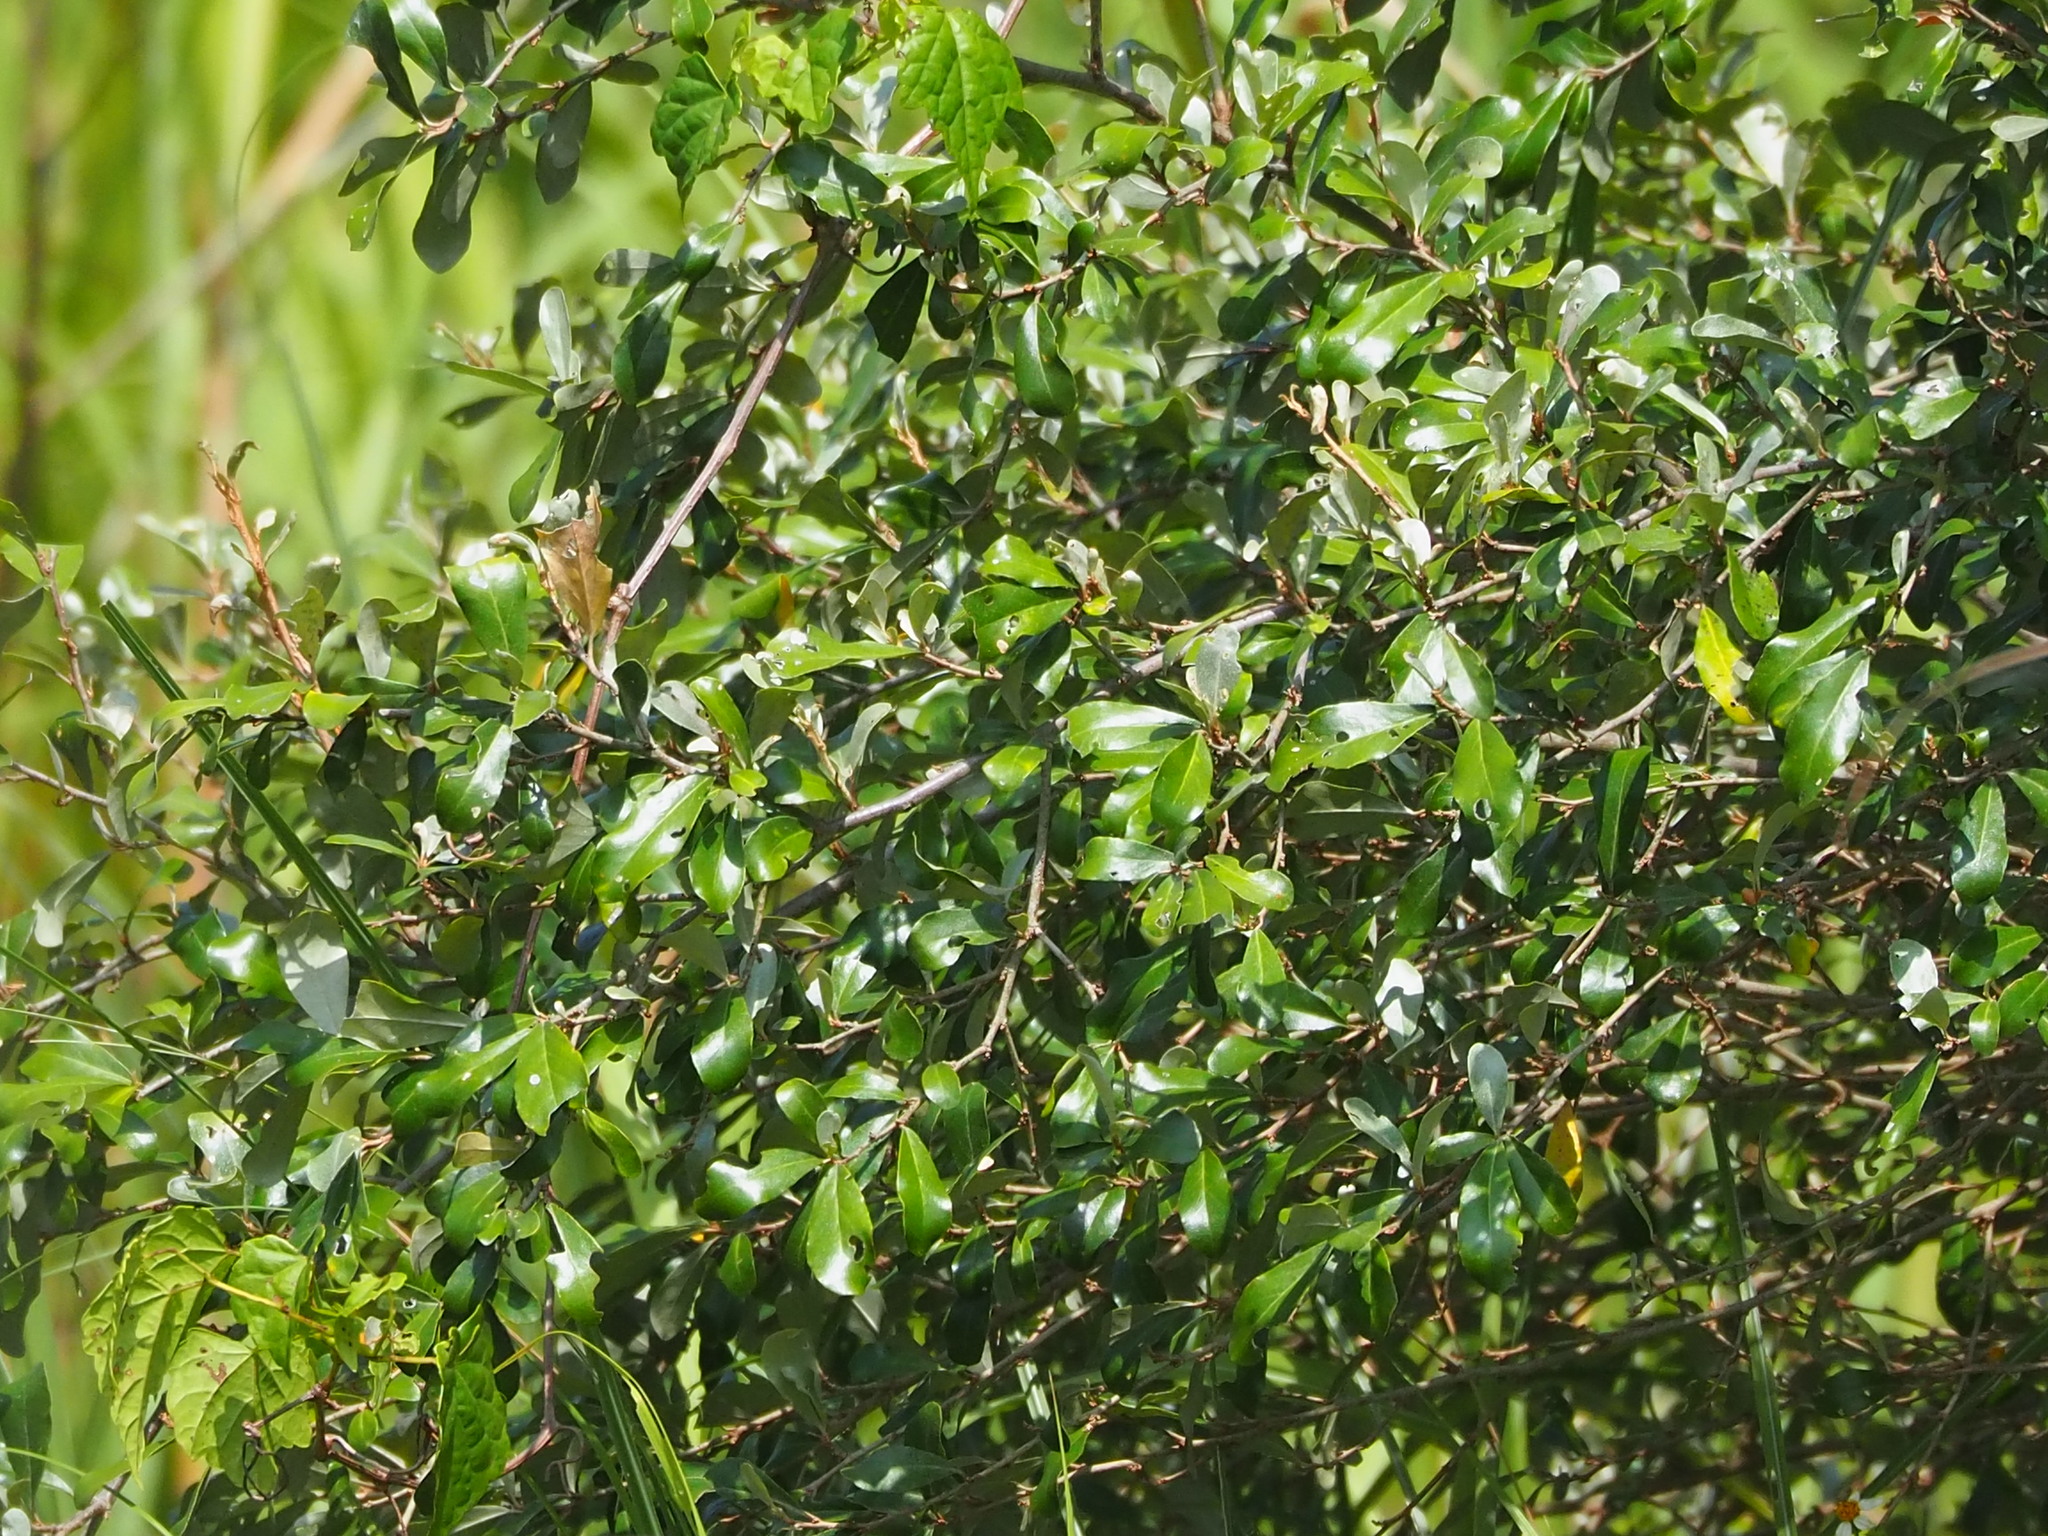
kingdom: Plantae
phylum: Tracheophyta
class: Magnoliopsida
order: Rosales
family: Elaeagnaceae
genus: Elaeagnus
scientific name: Elaeagnus oldhamii
